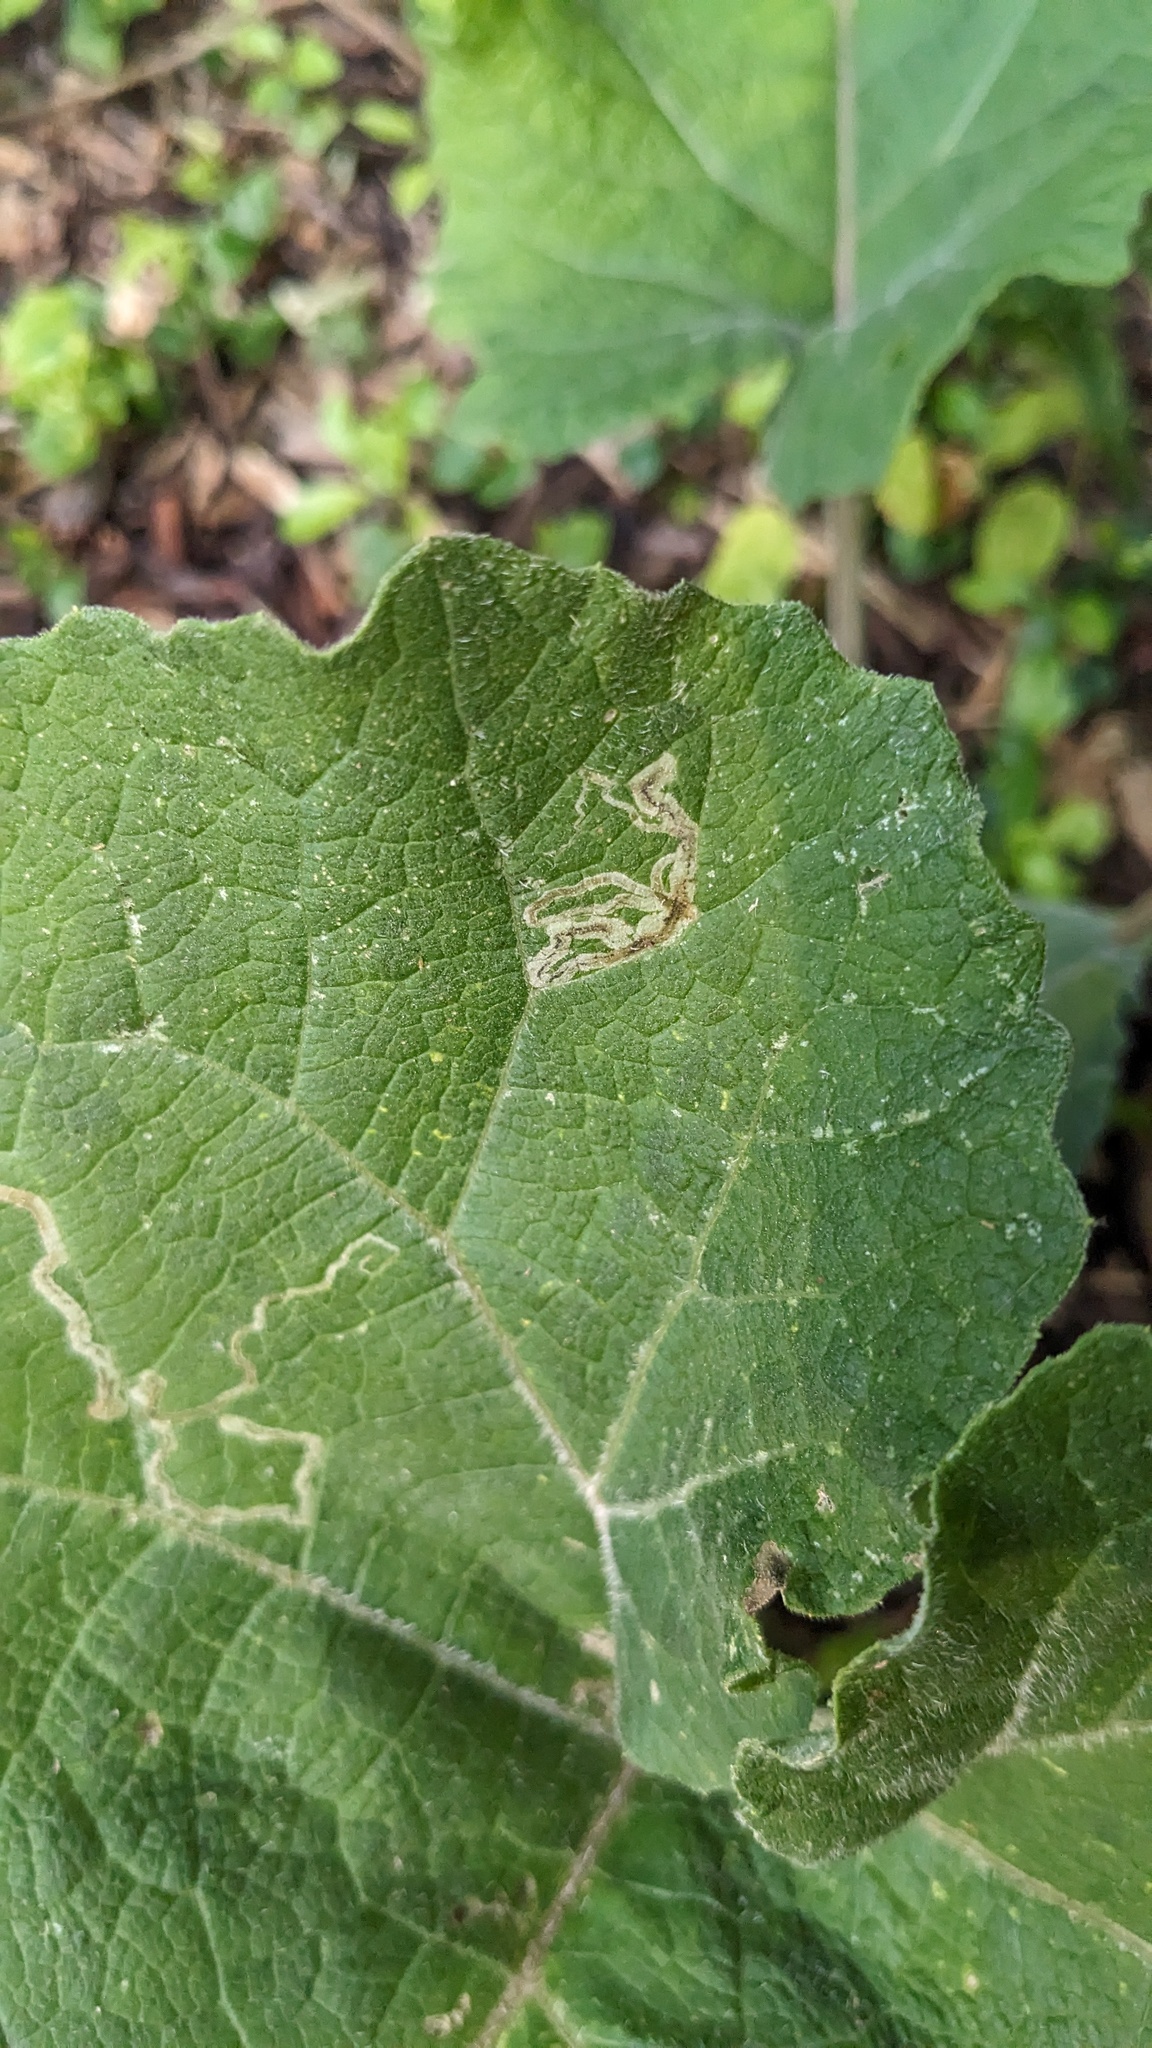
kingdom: Animalia
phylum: Arthropoda
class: Insecta
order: Diptera
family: Agromyzidae
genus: Liriomyza
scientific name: Liriomyza arctii
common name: Burdock leafminer
